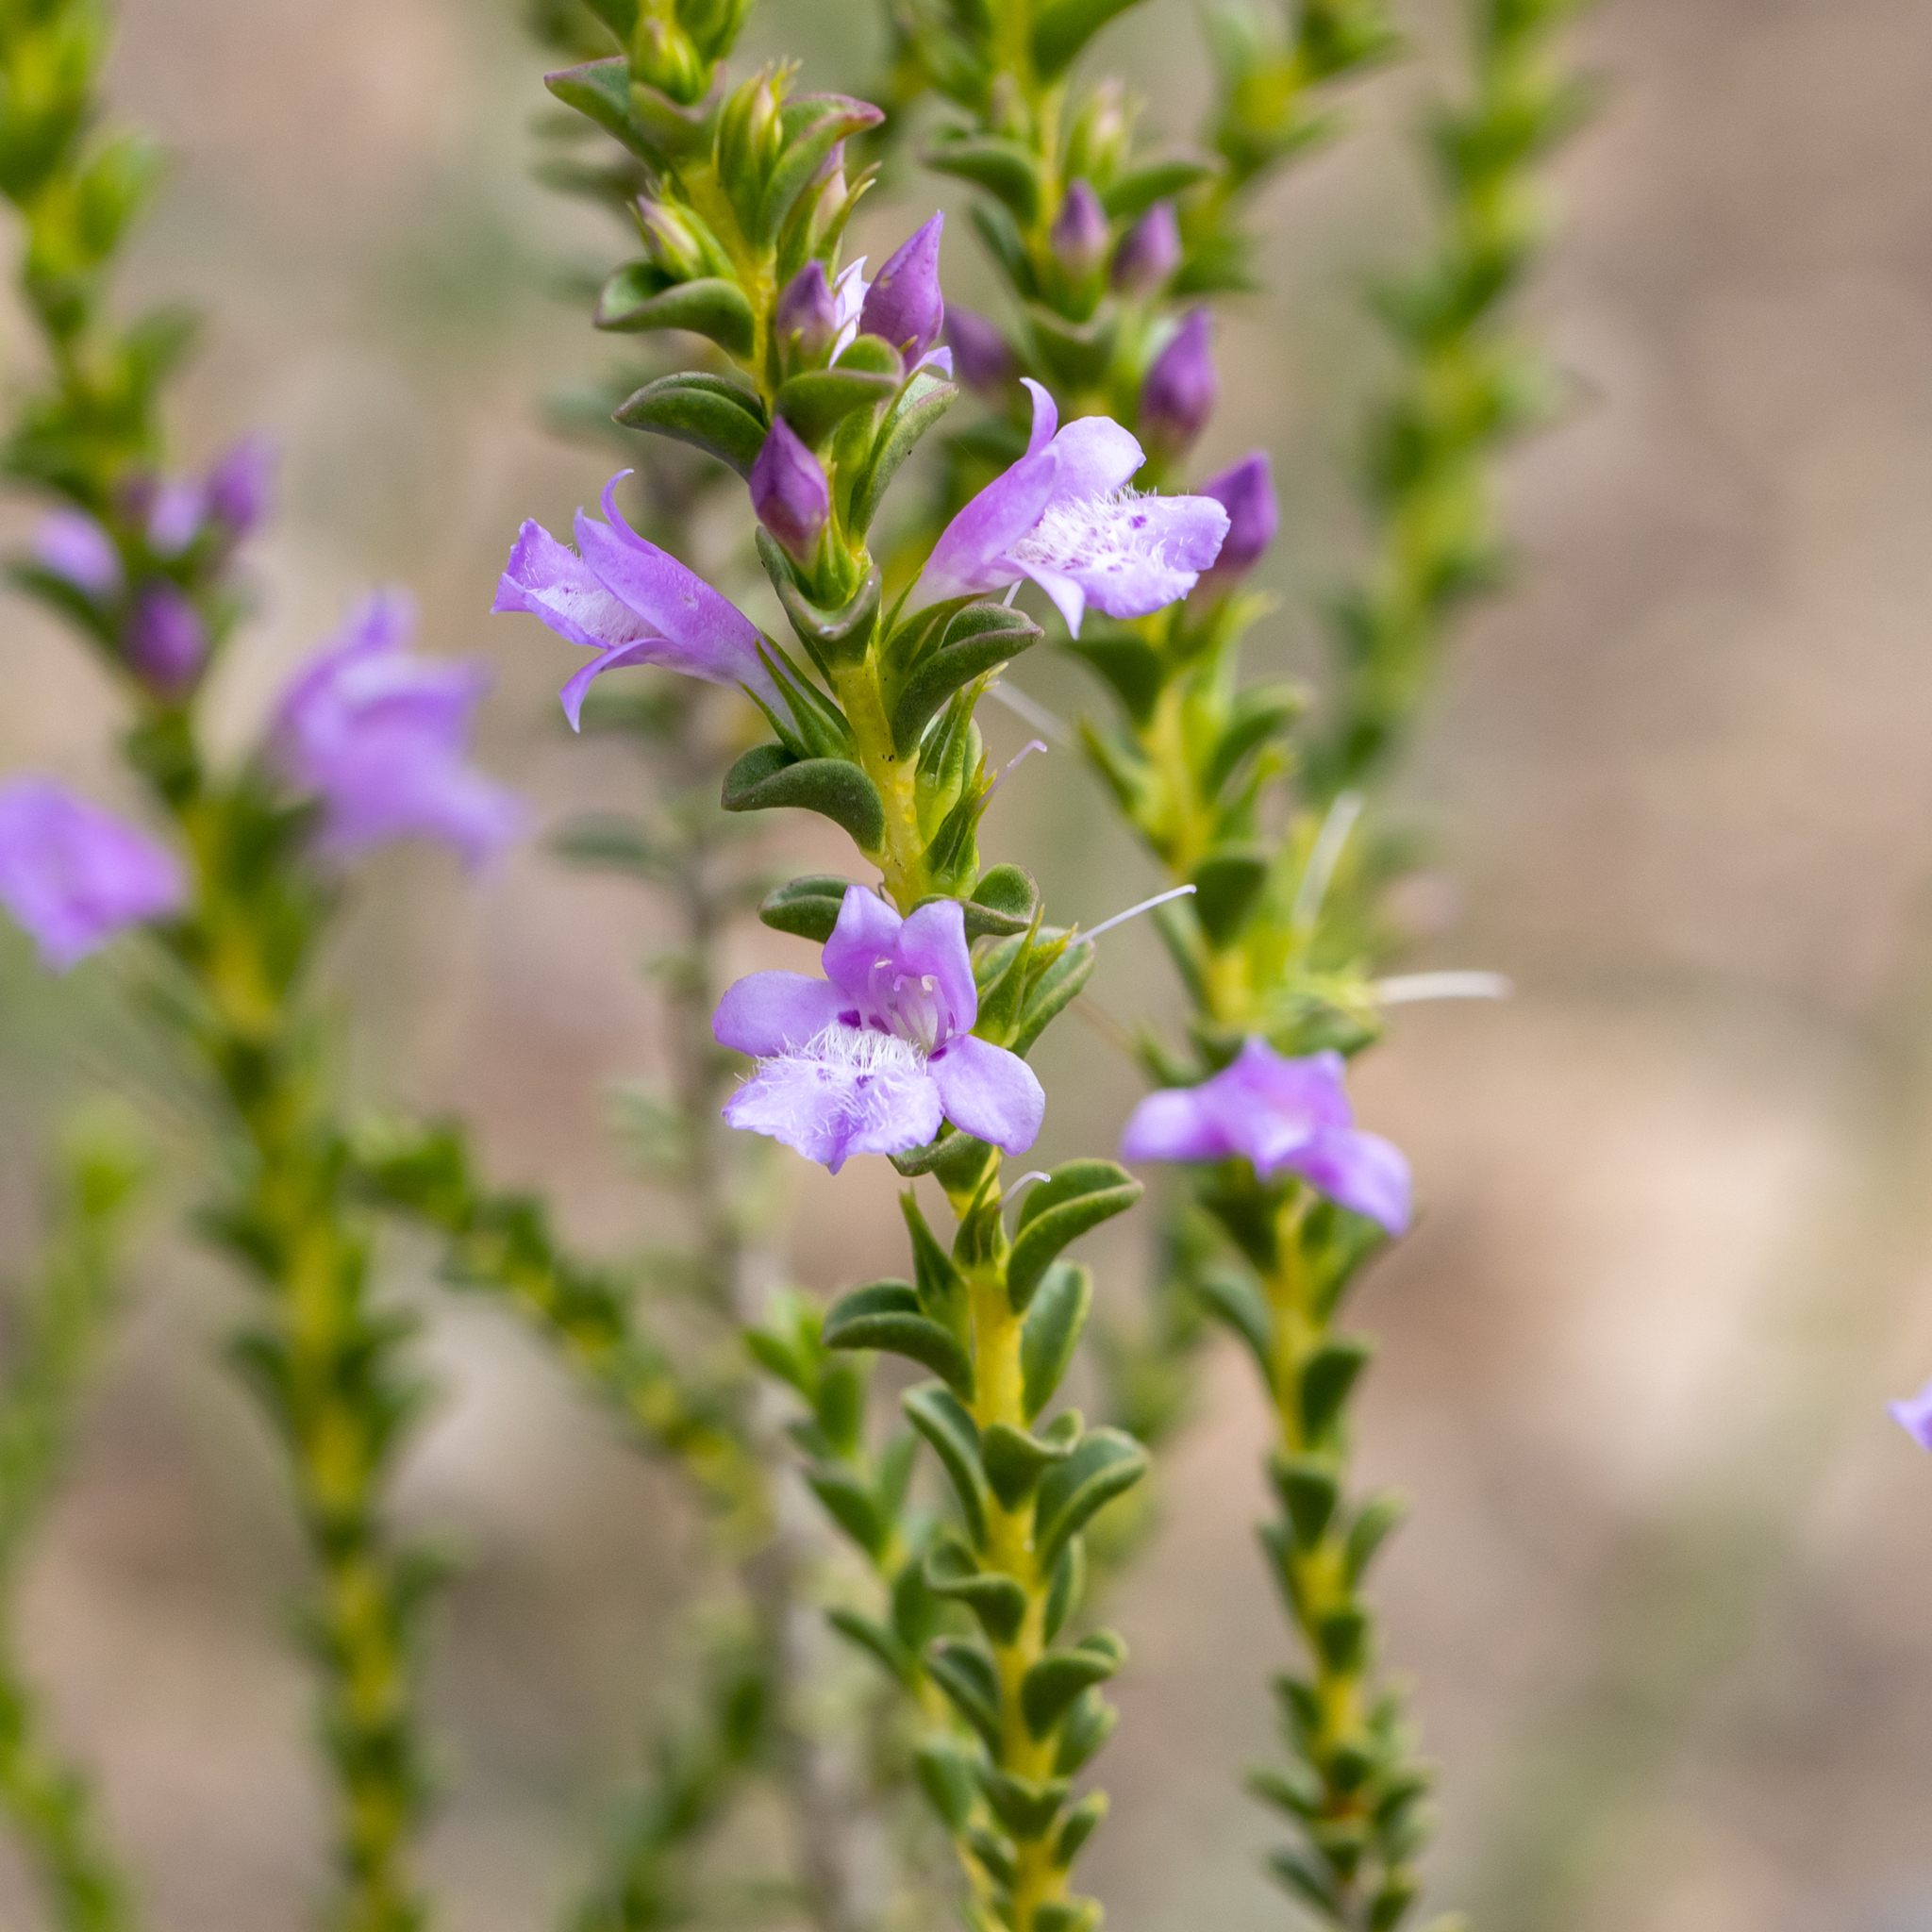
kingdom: Plantae
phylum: Tracheophyta
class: Magnoliopsida
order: Lamiales
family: Scrophulariaceae
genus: Eremophila
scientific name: Eremophila crassifolia
